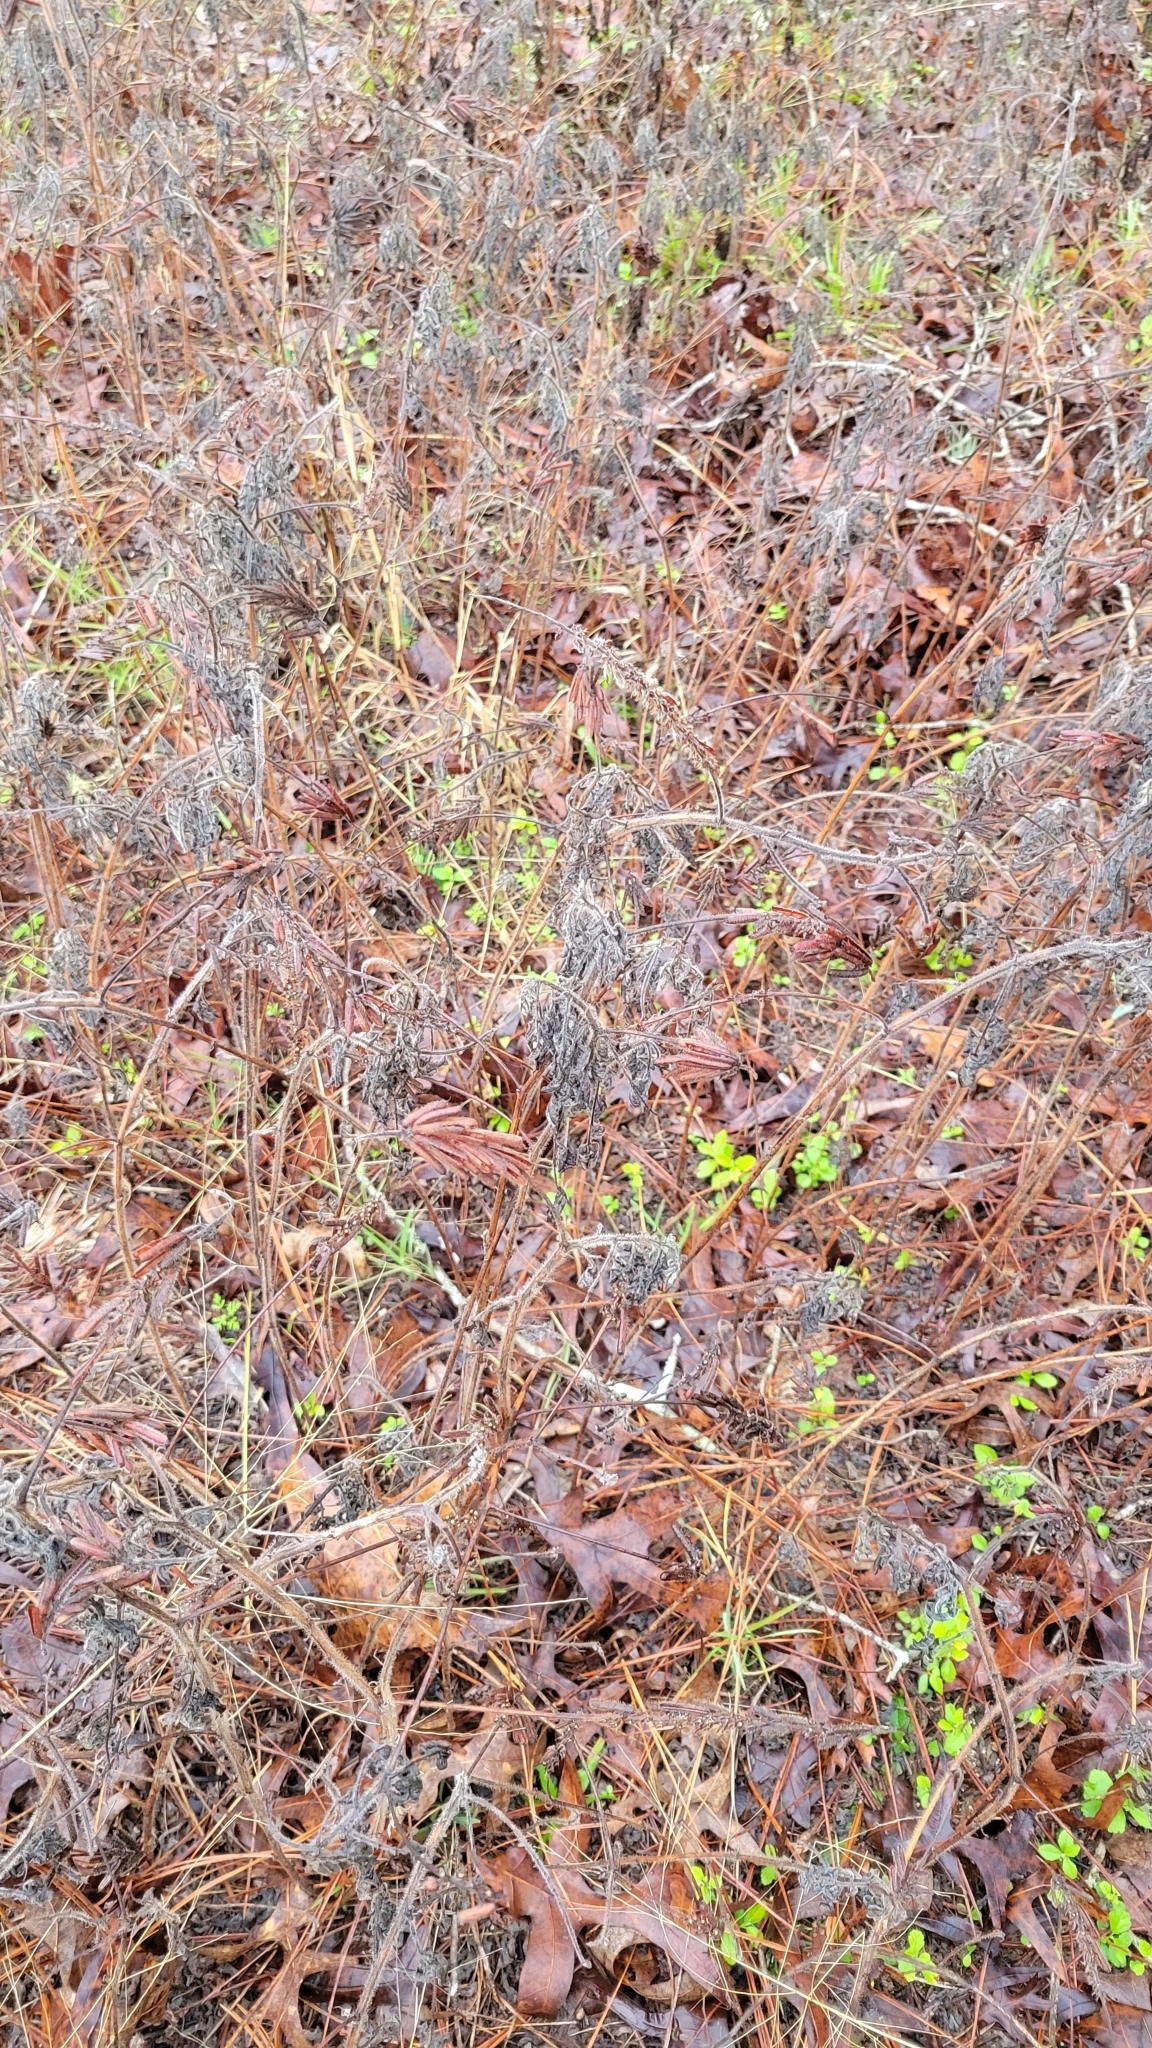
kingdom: Plantae
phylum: Tracheophyta
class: Magnoliopsida
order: Fabales
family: Fabaceae
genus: Indigofera
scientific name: Indigofera hirsuta
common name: Hairy indigo
